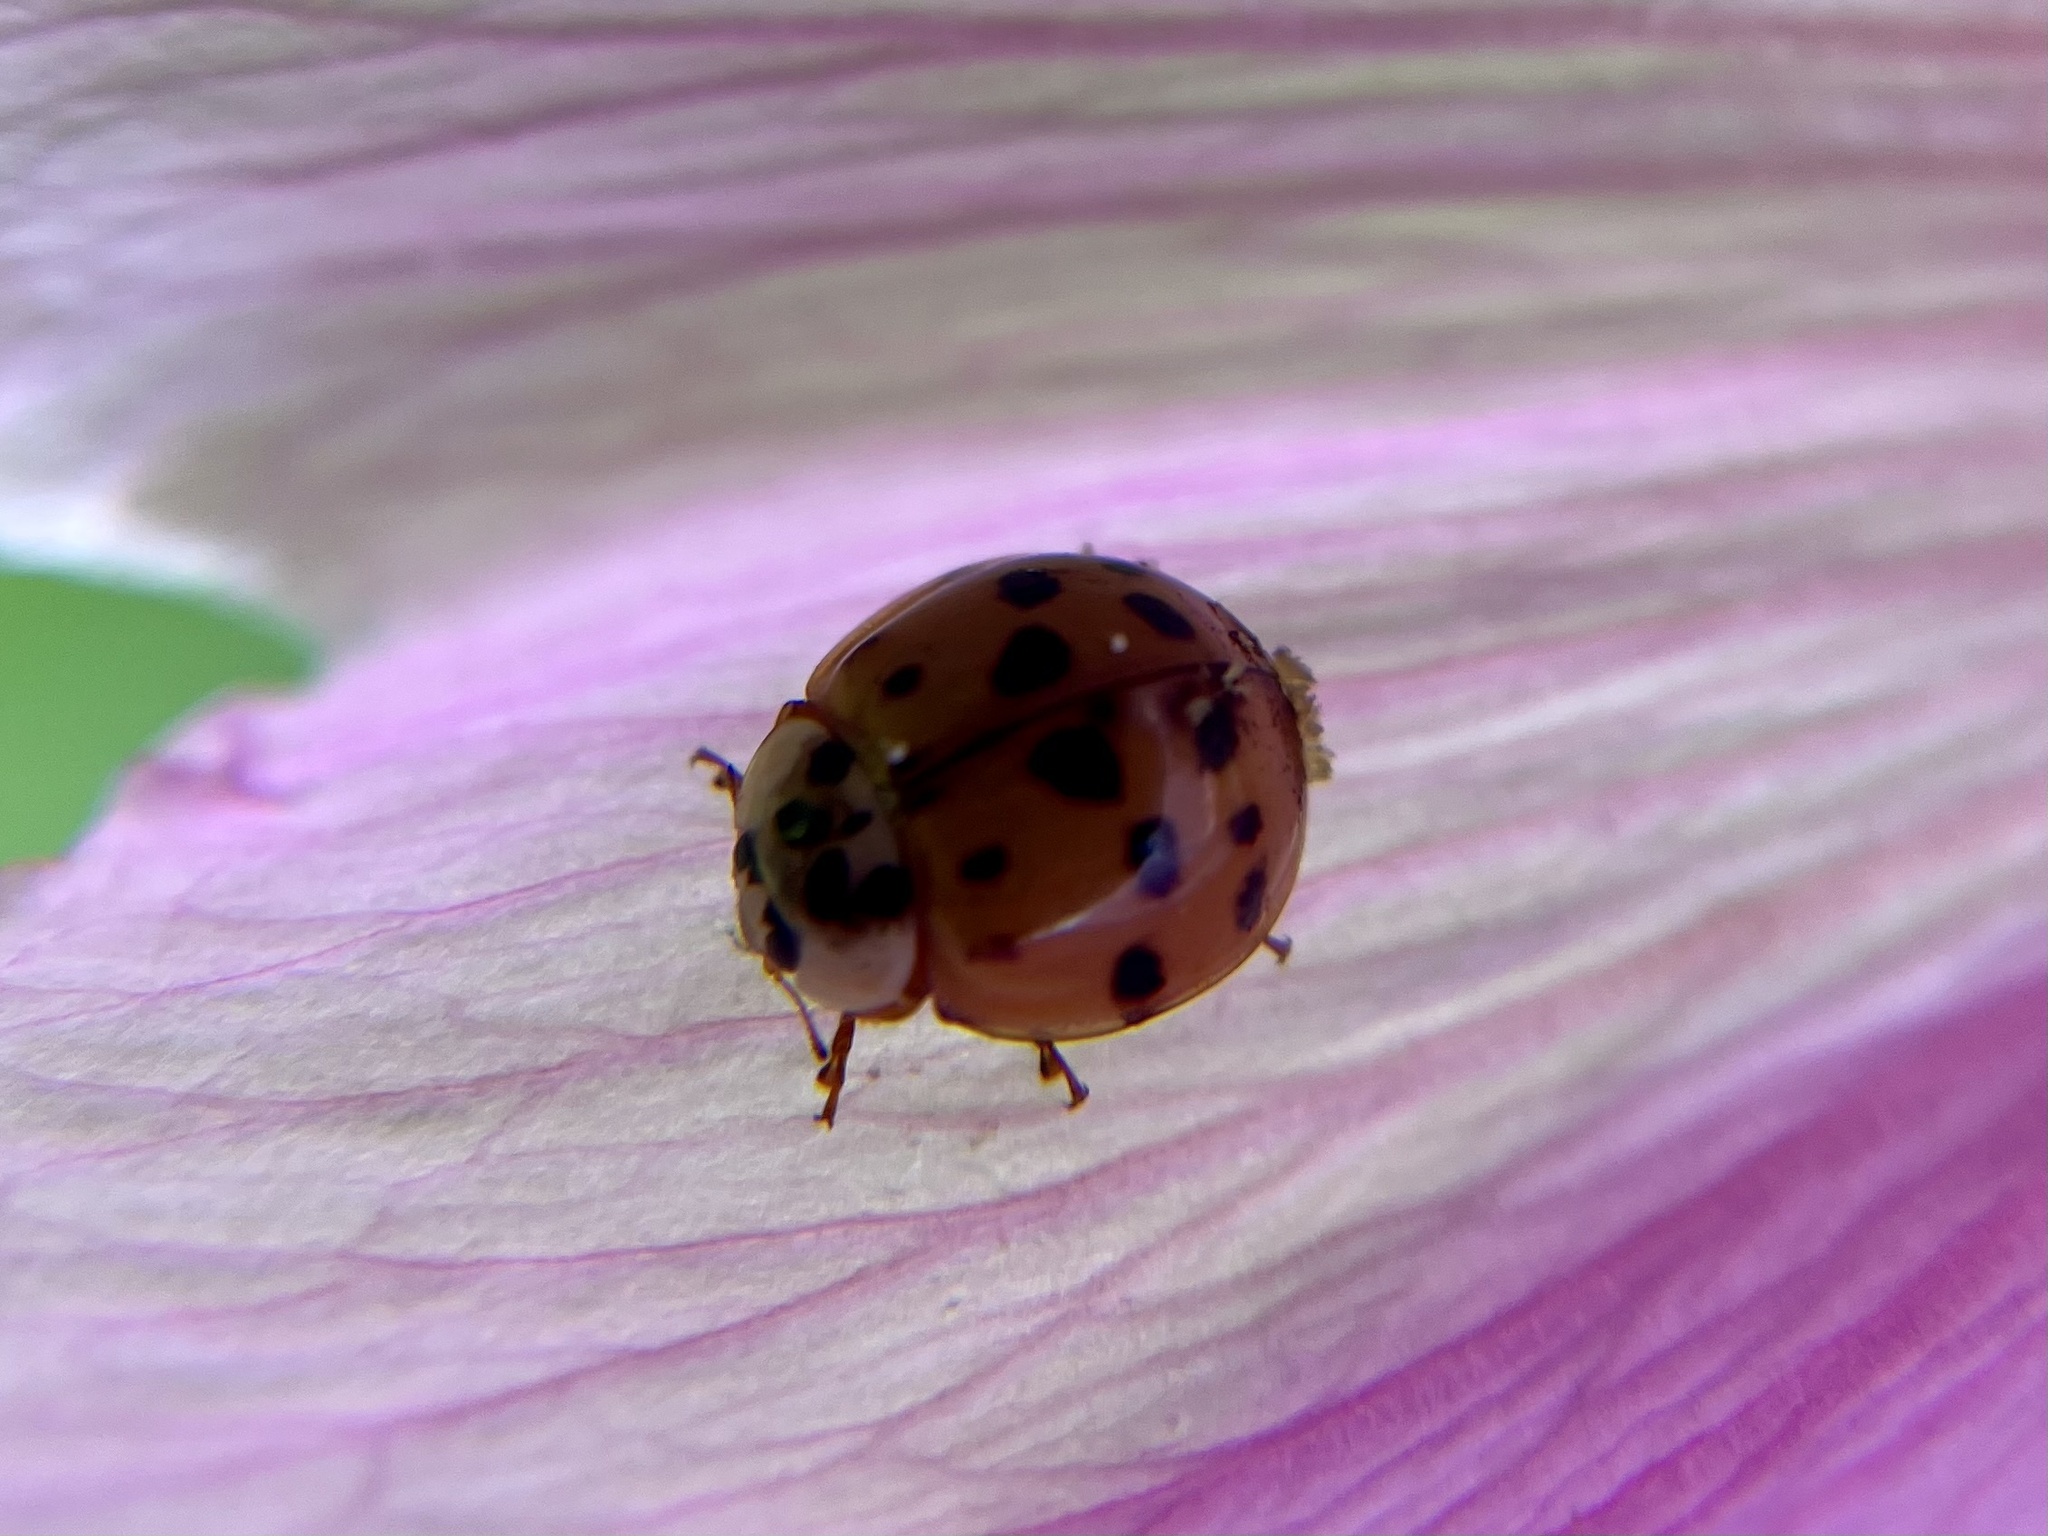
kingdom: Fungi
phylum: Ascomycota
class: Laboulbeniomycetes
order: Laboulbeniales
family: Laboulbeniaceae
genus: Hesperomyces
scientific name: Hesperomyces harmoniae
